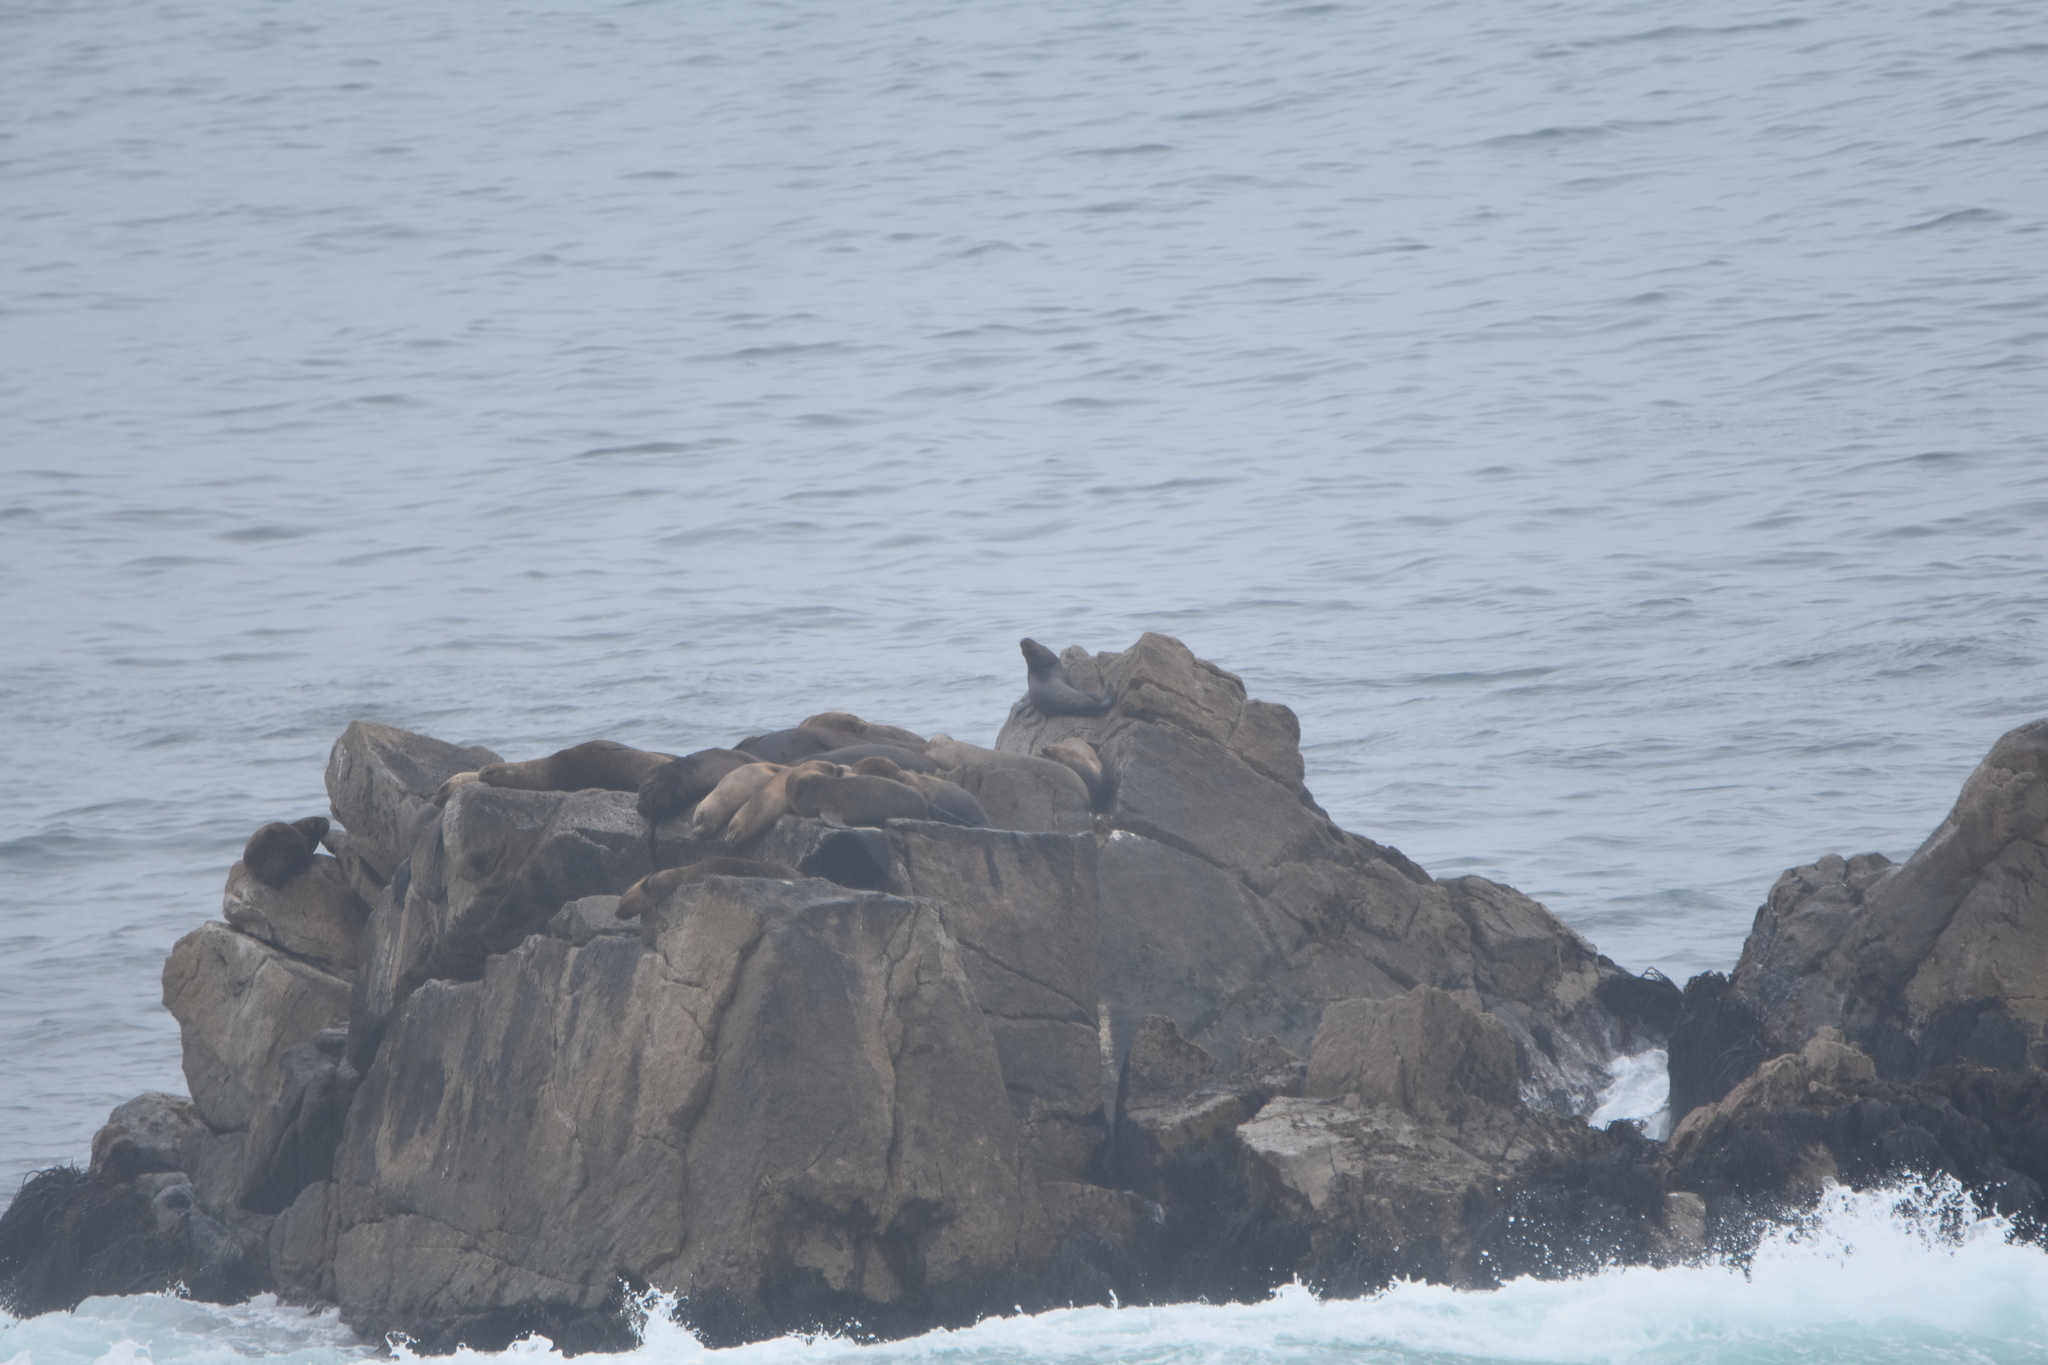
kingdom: Animalia
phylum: Chordata
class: Mammalia
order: Carnivora
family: Otariidae
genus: Otaria
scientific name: Otaria byronia
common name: South american sea lion
